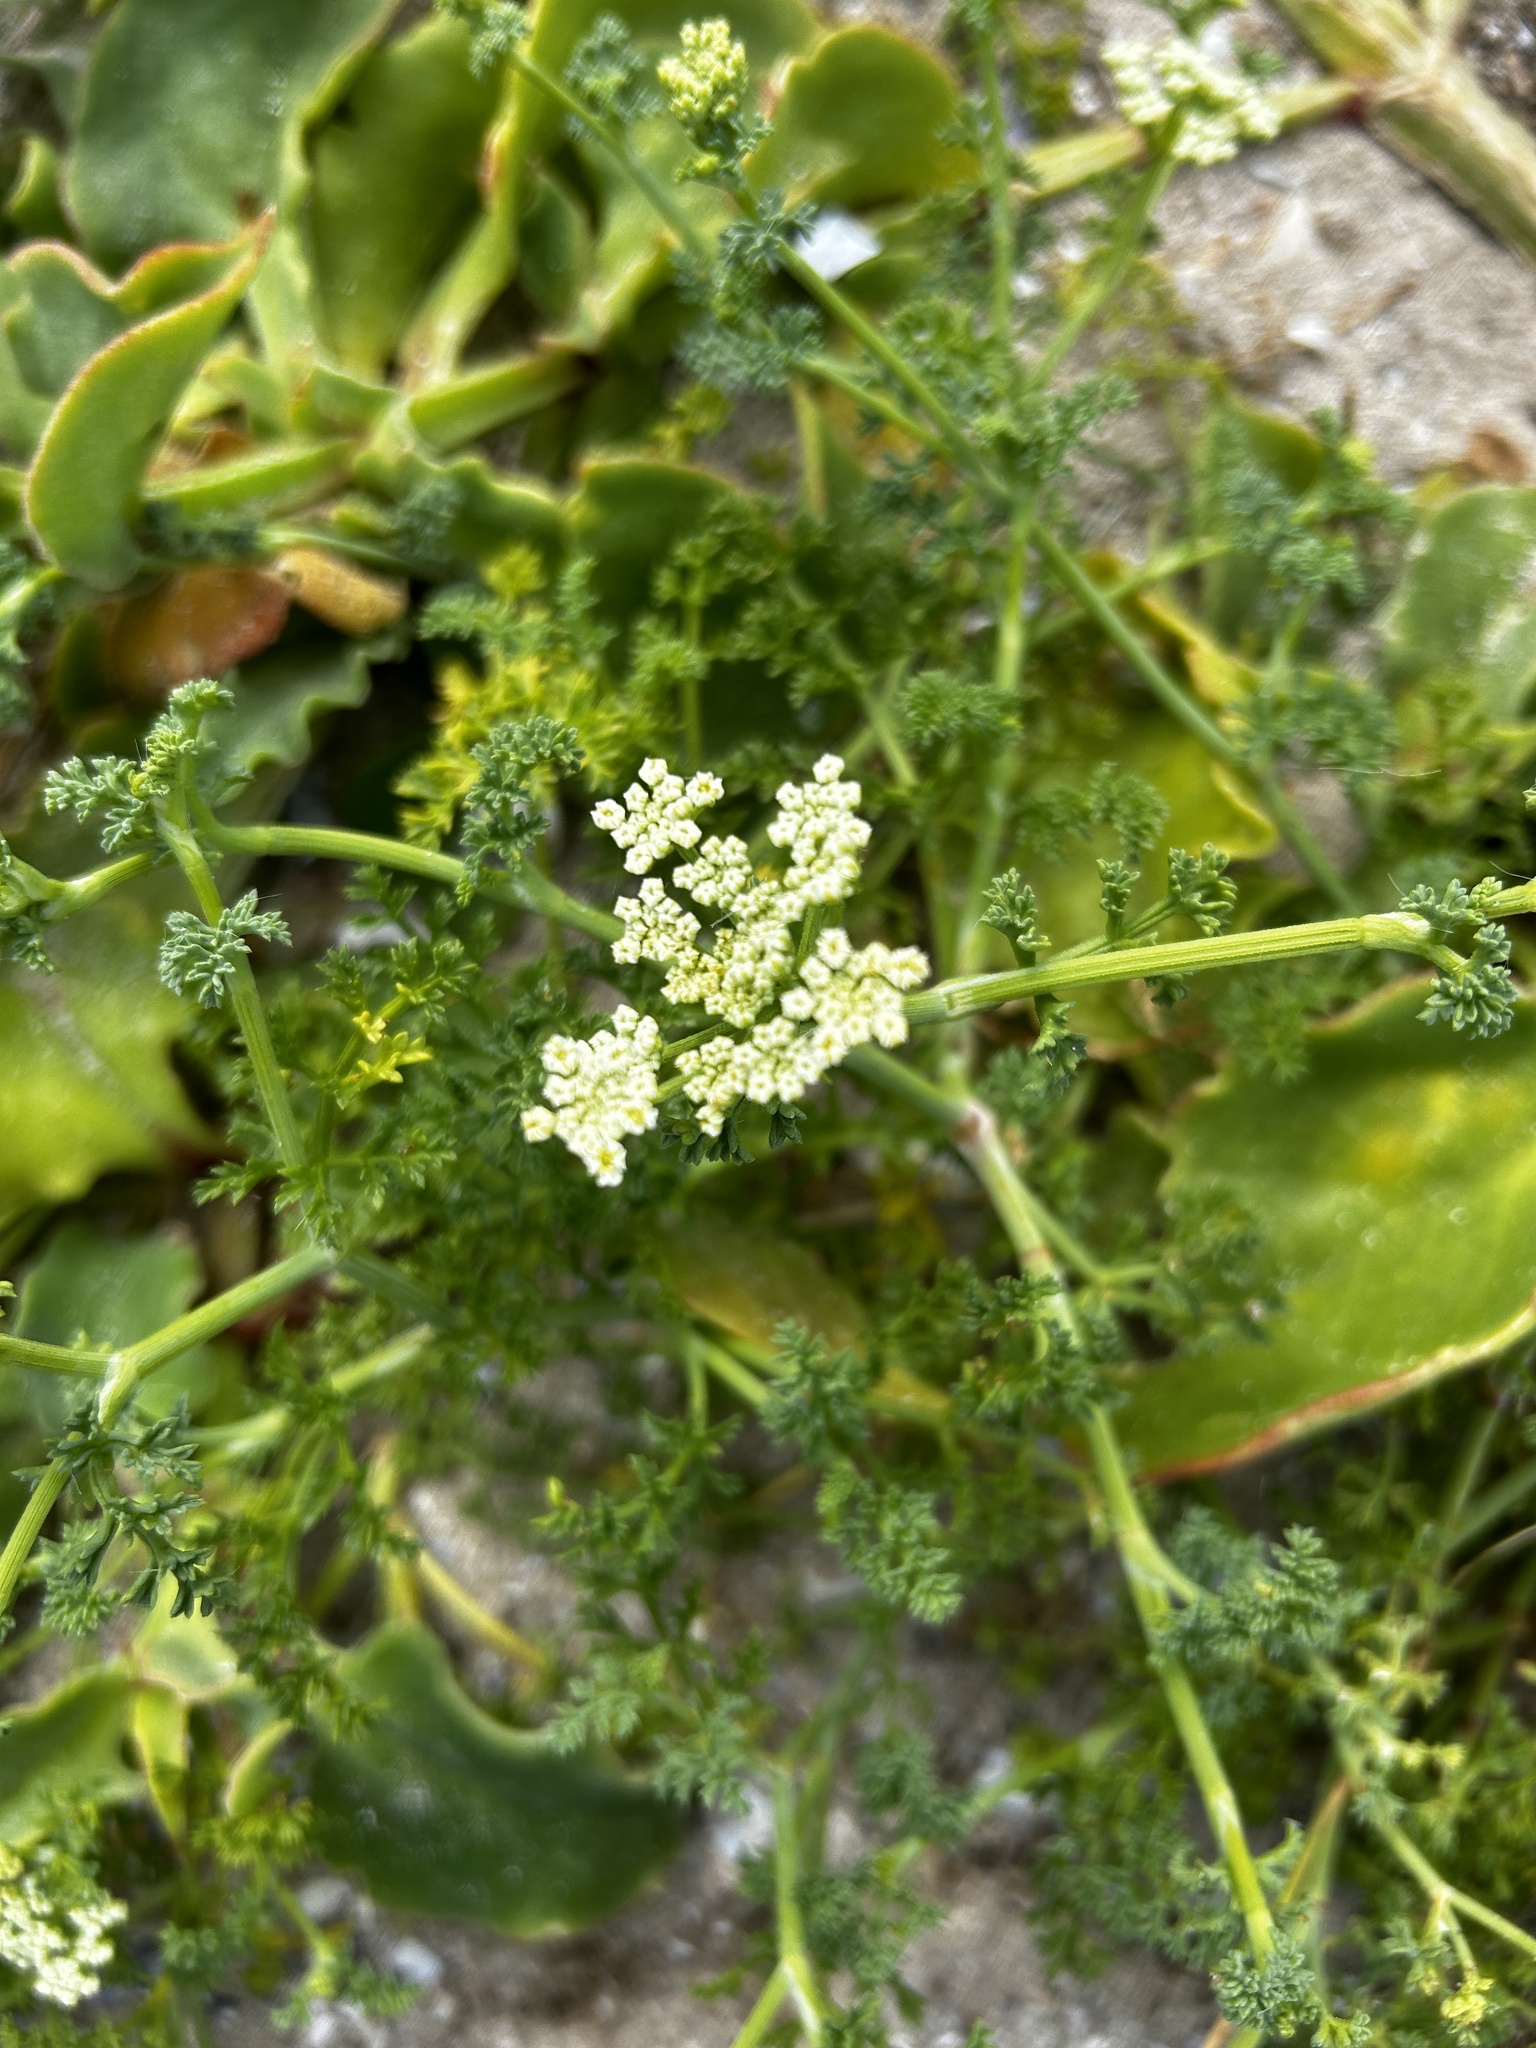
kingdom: Plantae
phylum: Tracheophyta
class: Magnoliopsida
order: Apiales
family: Apiaceae
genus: Dasispermum
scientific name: Dasispermum suffruticosum
